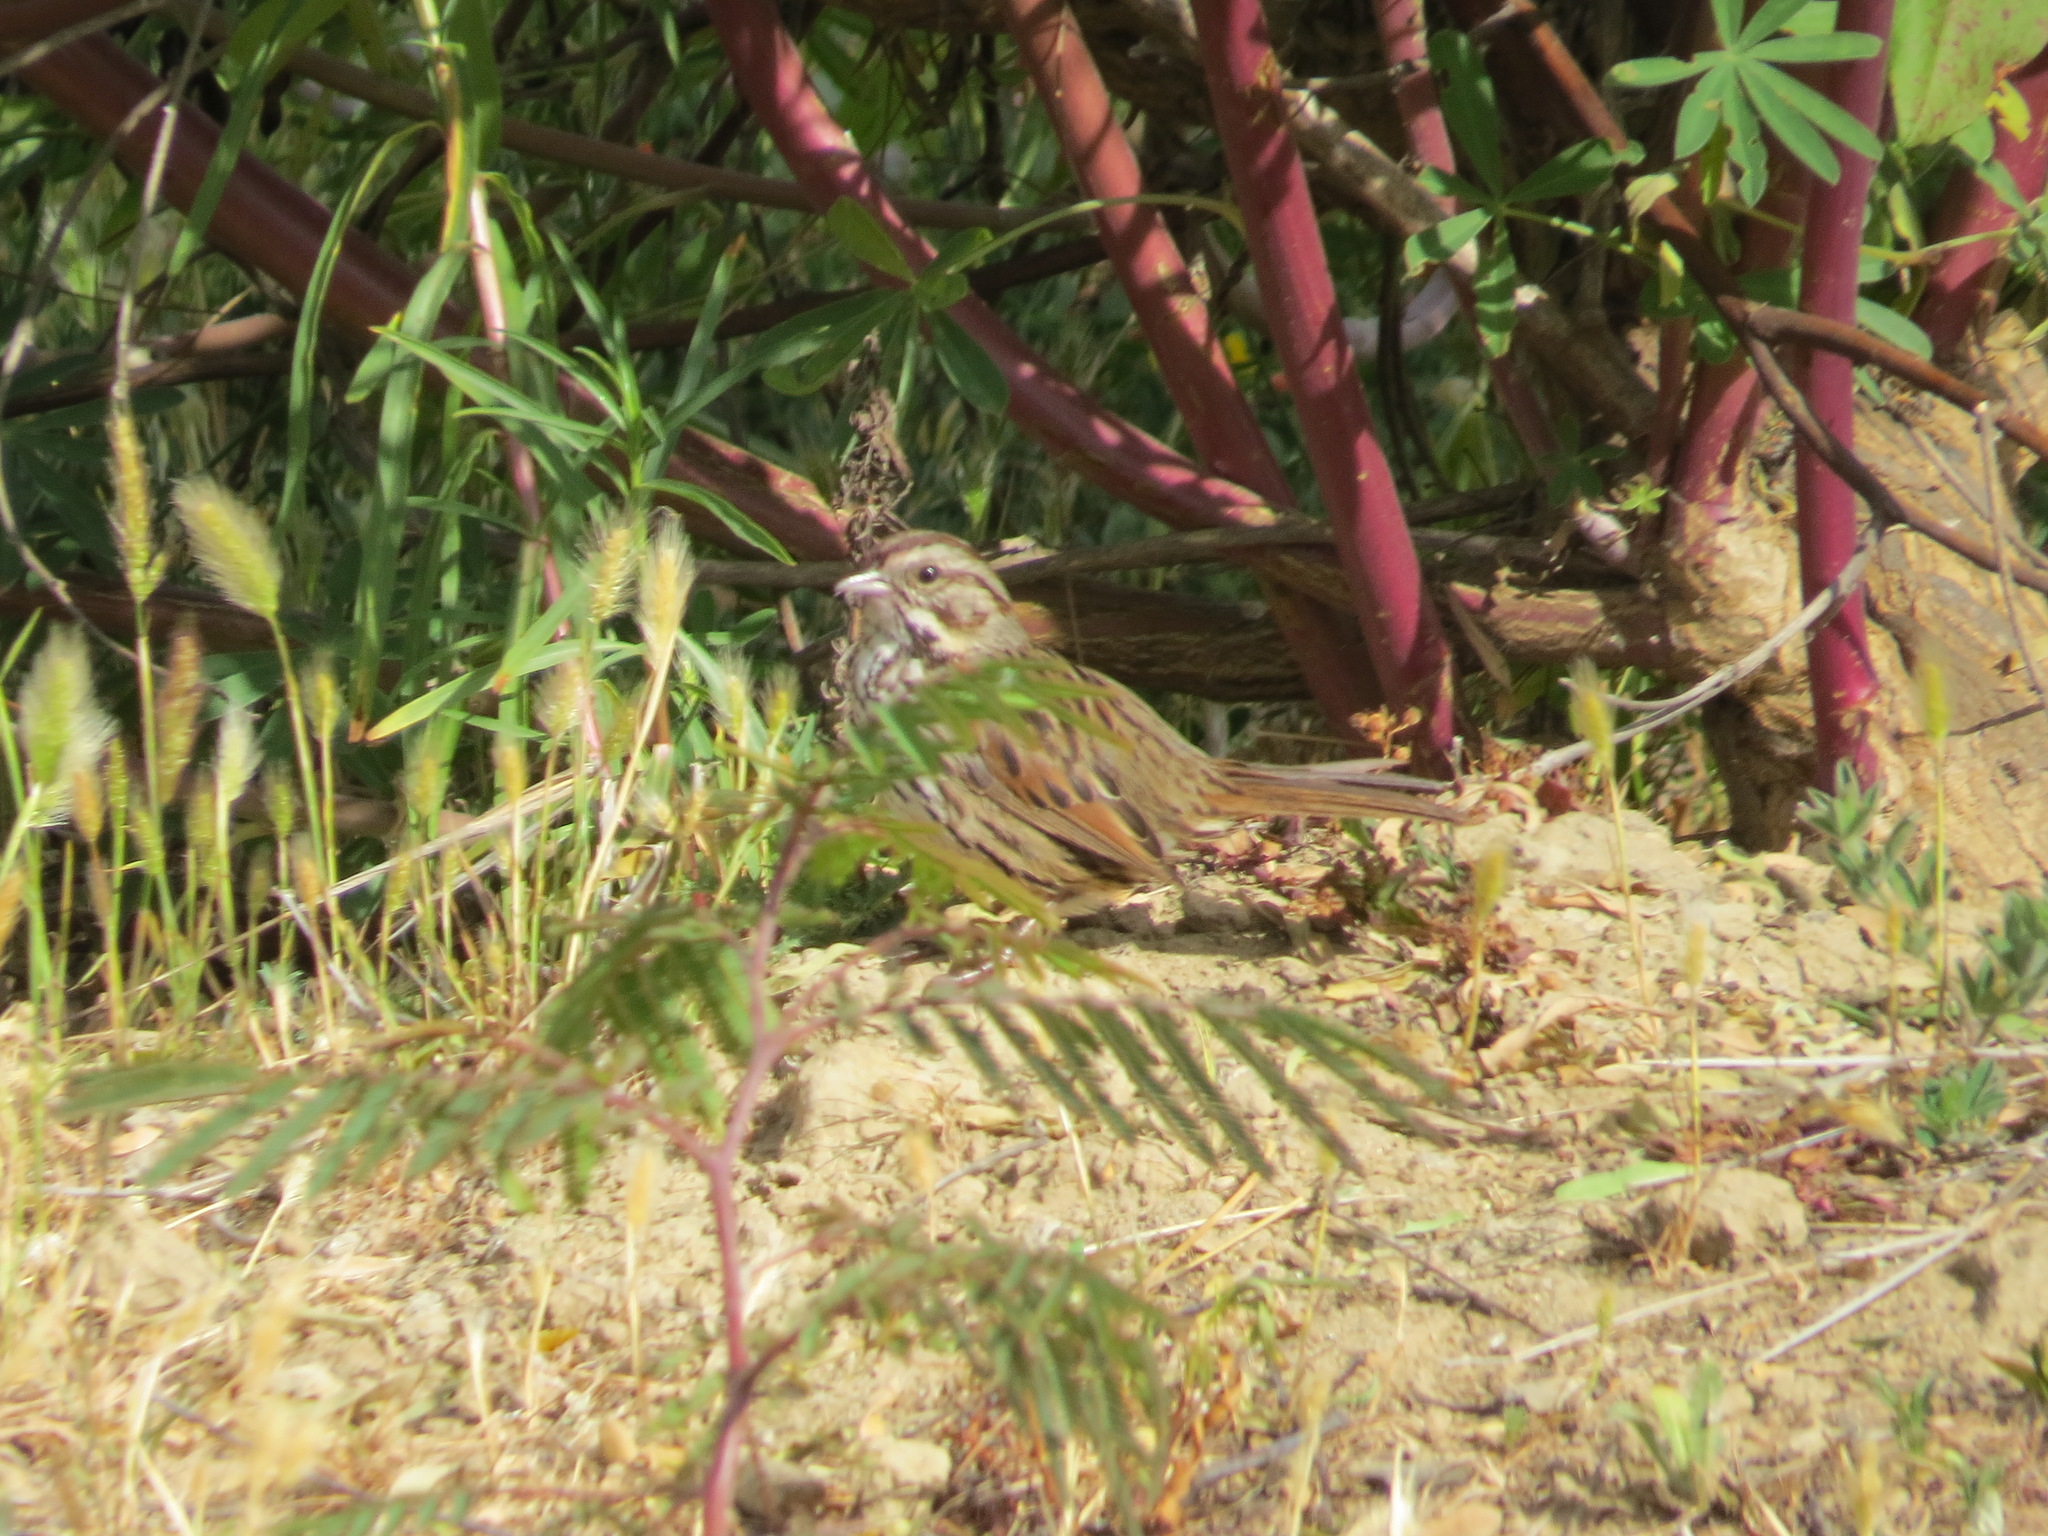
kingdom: Animalia
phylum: Chordata
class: Aves
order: Passeriformes
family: Passerellidae
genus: Melospiza
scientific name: Melospiza melodia
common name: Song sparrow
